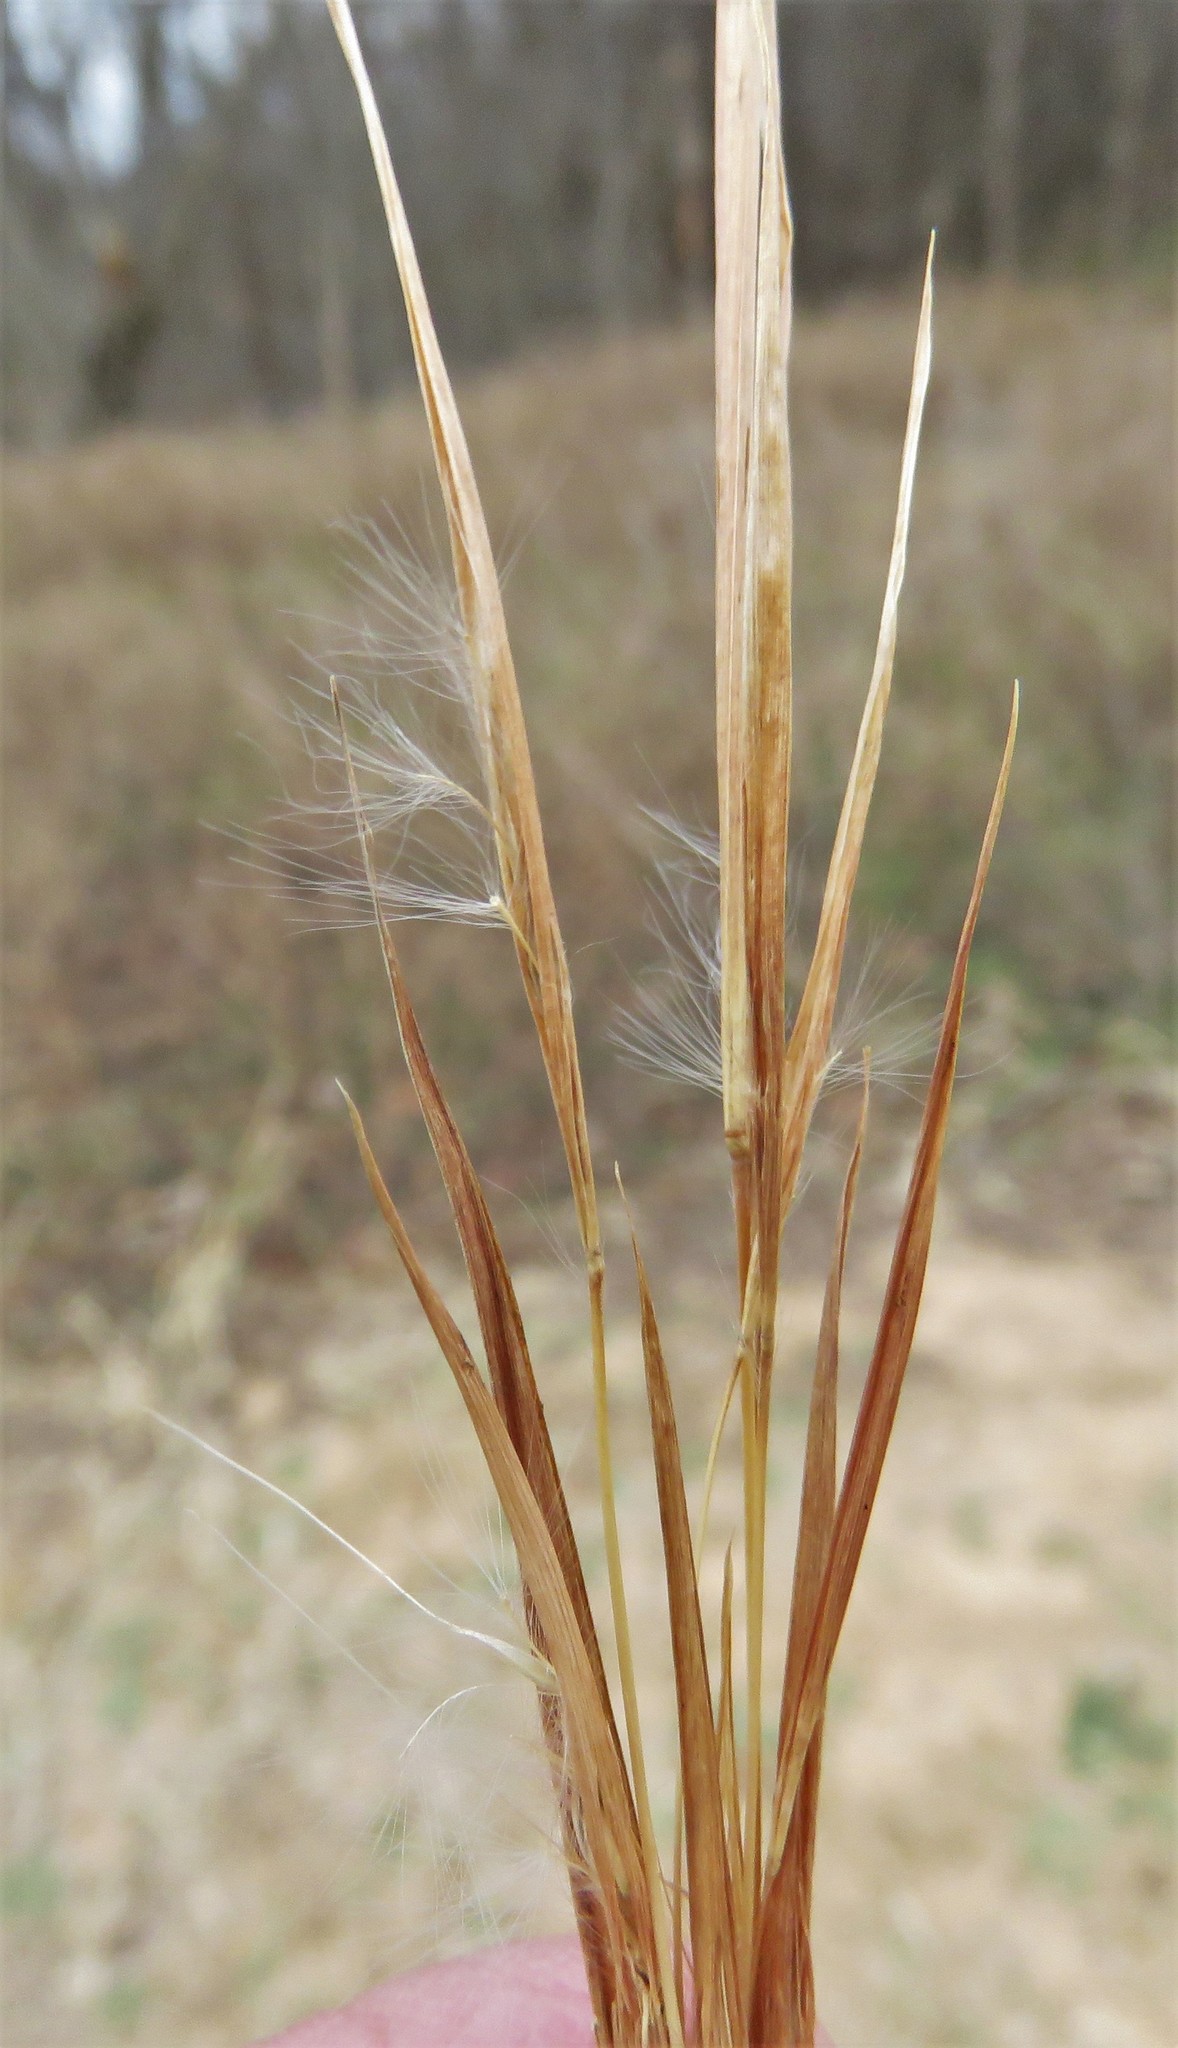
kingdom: Plantae
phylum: Tracheophyta
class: Liliopsida
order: Poales
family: Poaceae
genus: Andropogon
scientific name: Andropogon virginicus
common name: Broomsedge bluestem
